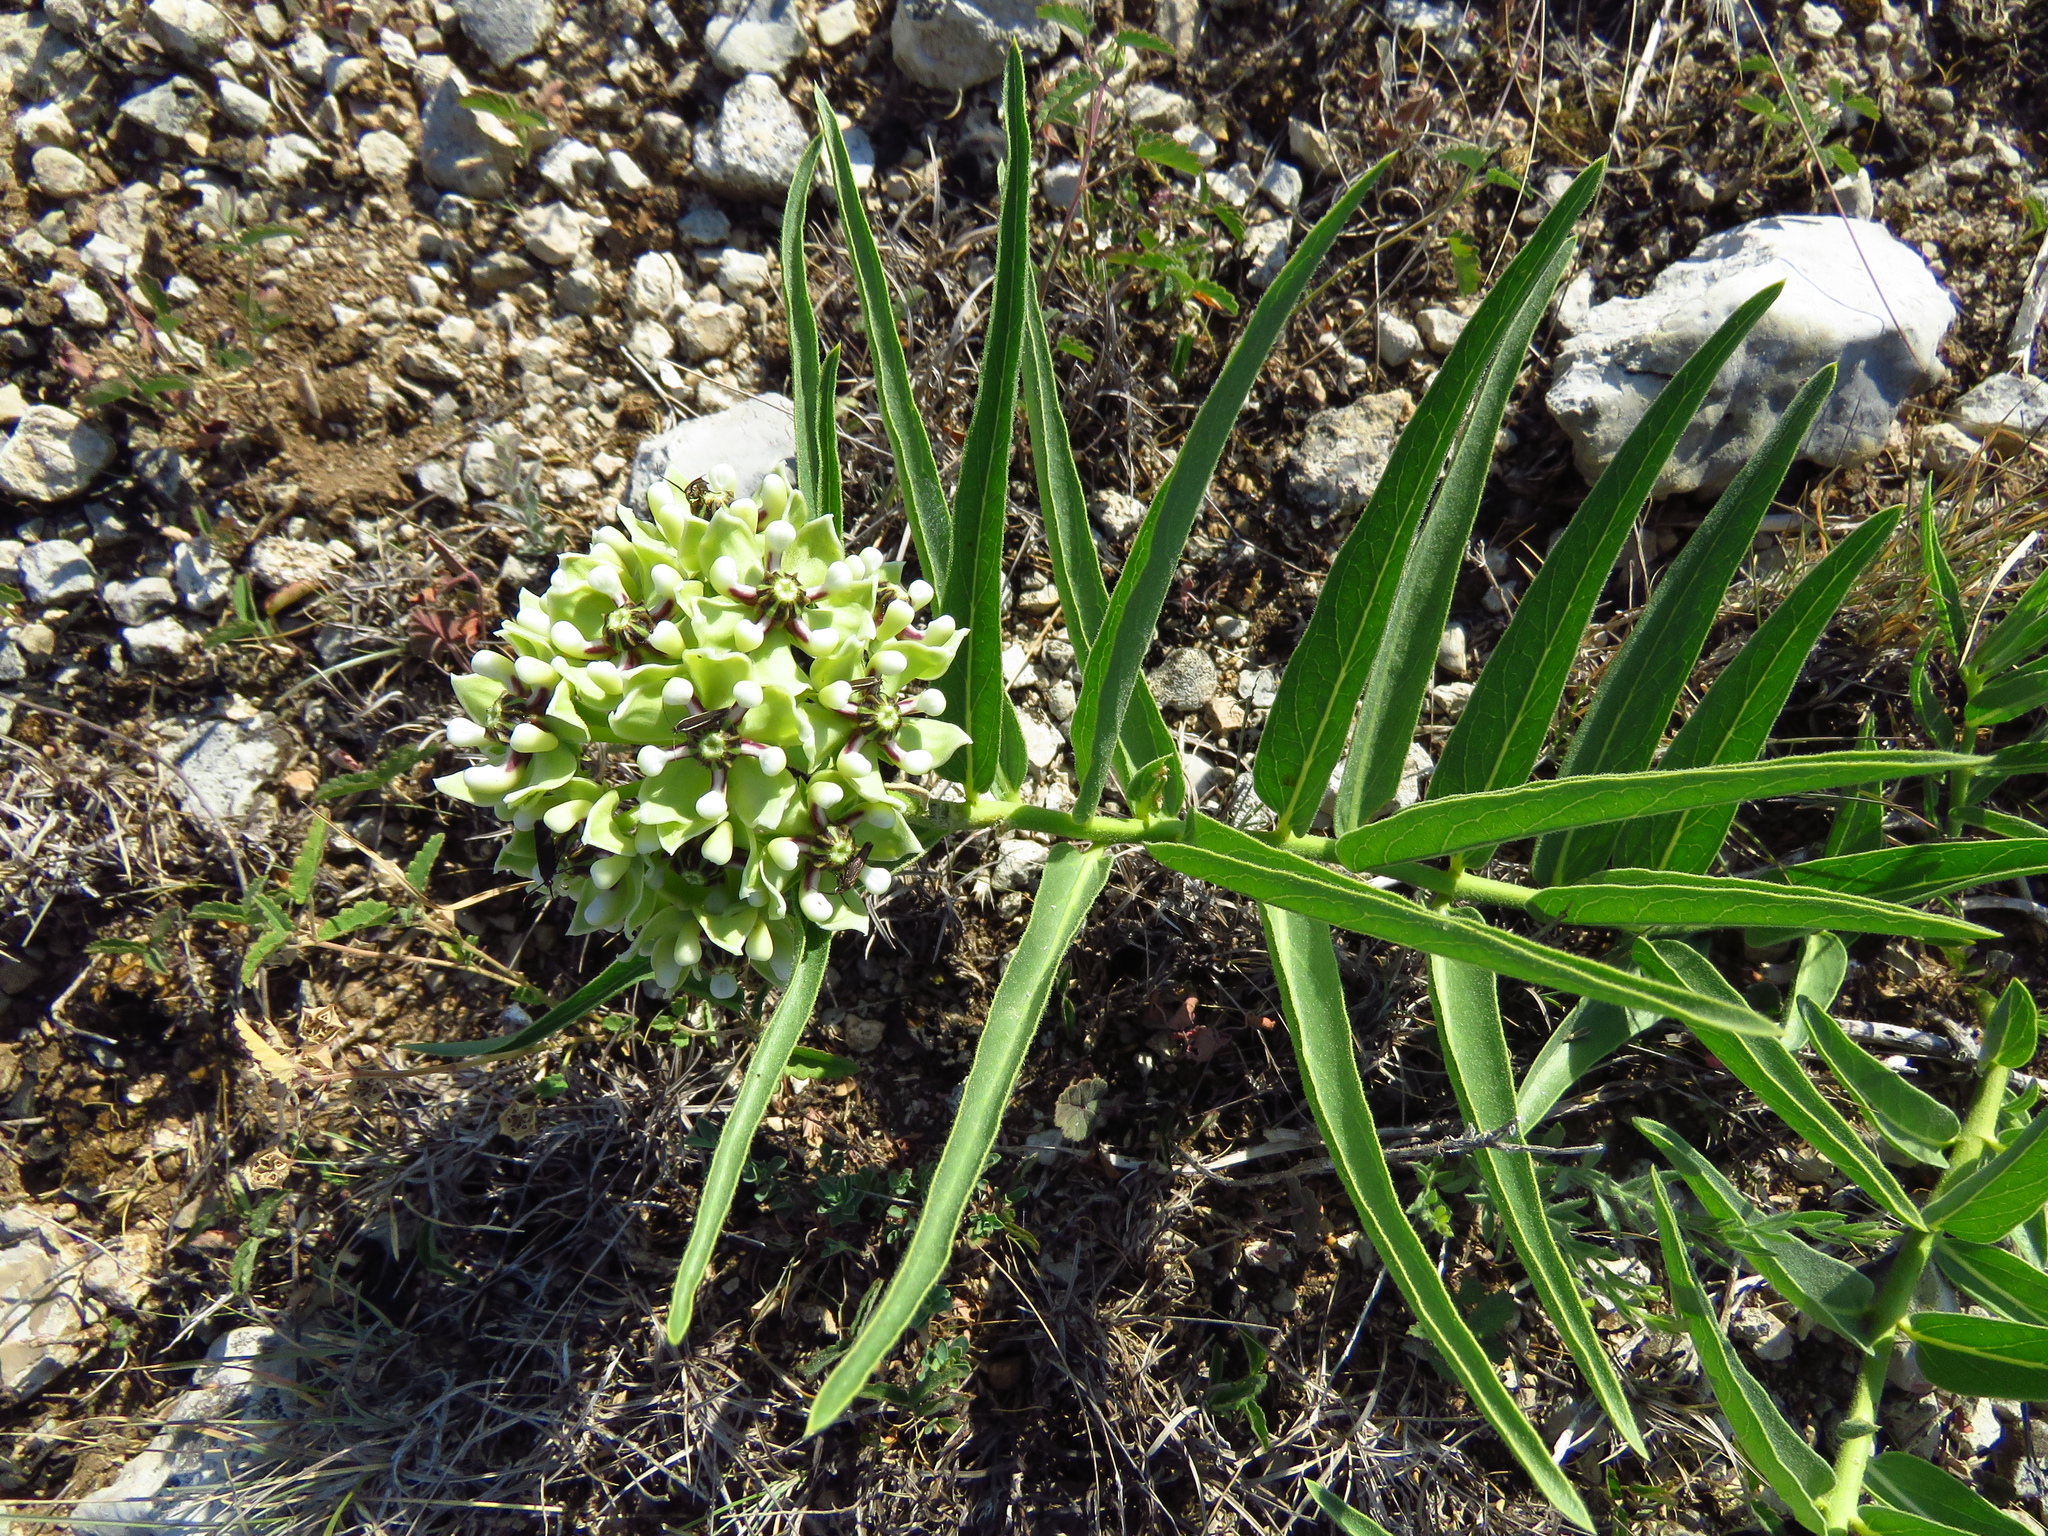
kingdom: Plantae
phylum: Tracheophyta
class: Magnoliopsida
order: Gentianales
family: Apocynaceae
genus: Asclepias
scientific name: Asclepias asperula
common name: Antelope horns
